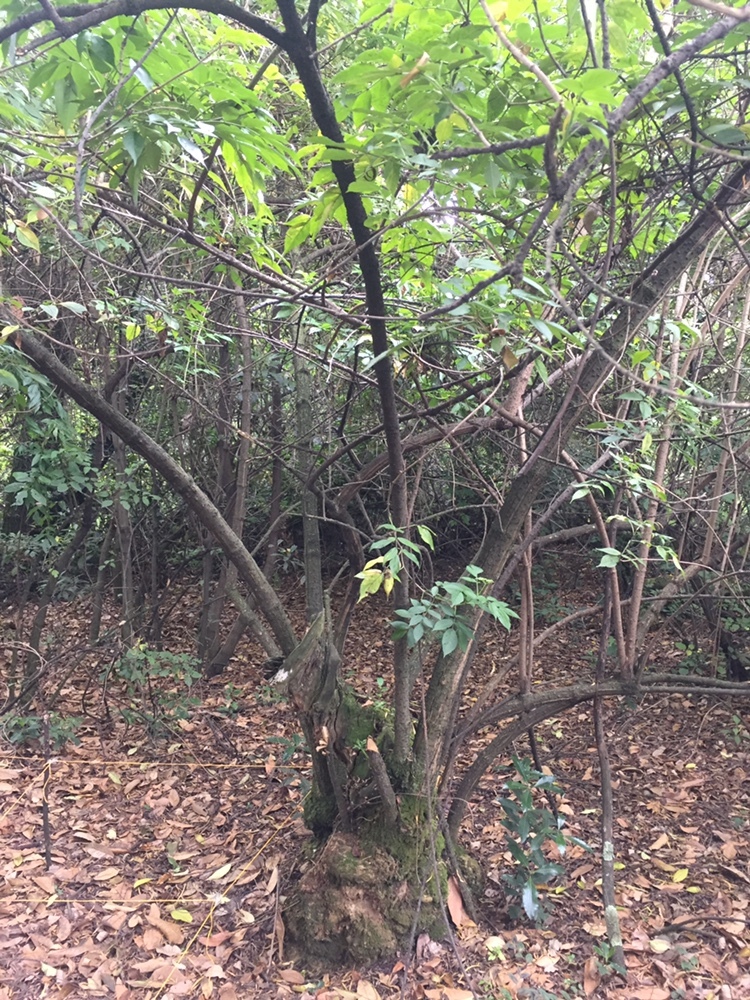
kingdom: Plantae
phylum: Tracheophyta
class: Magnoliopsida
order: Dipsacales
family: Viburnaceae
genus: Sambucus
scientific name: Sambucus nigra
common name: Elder
